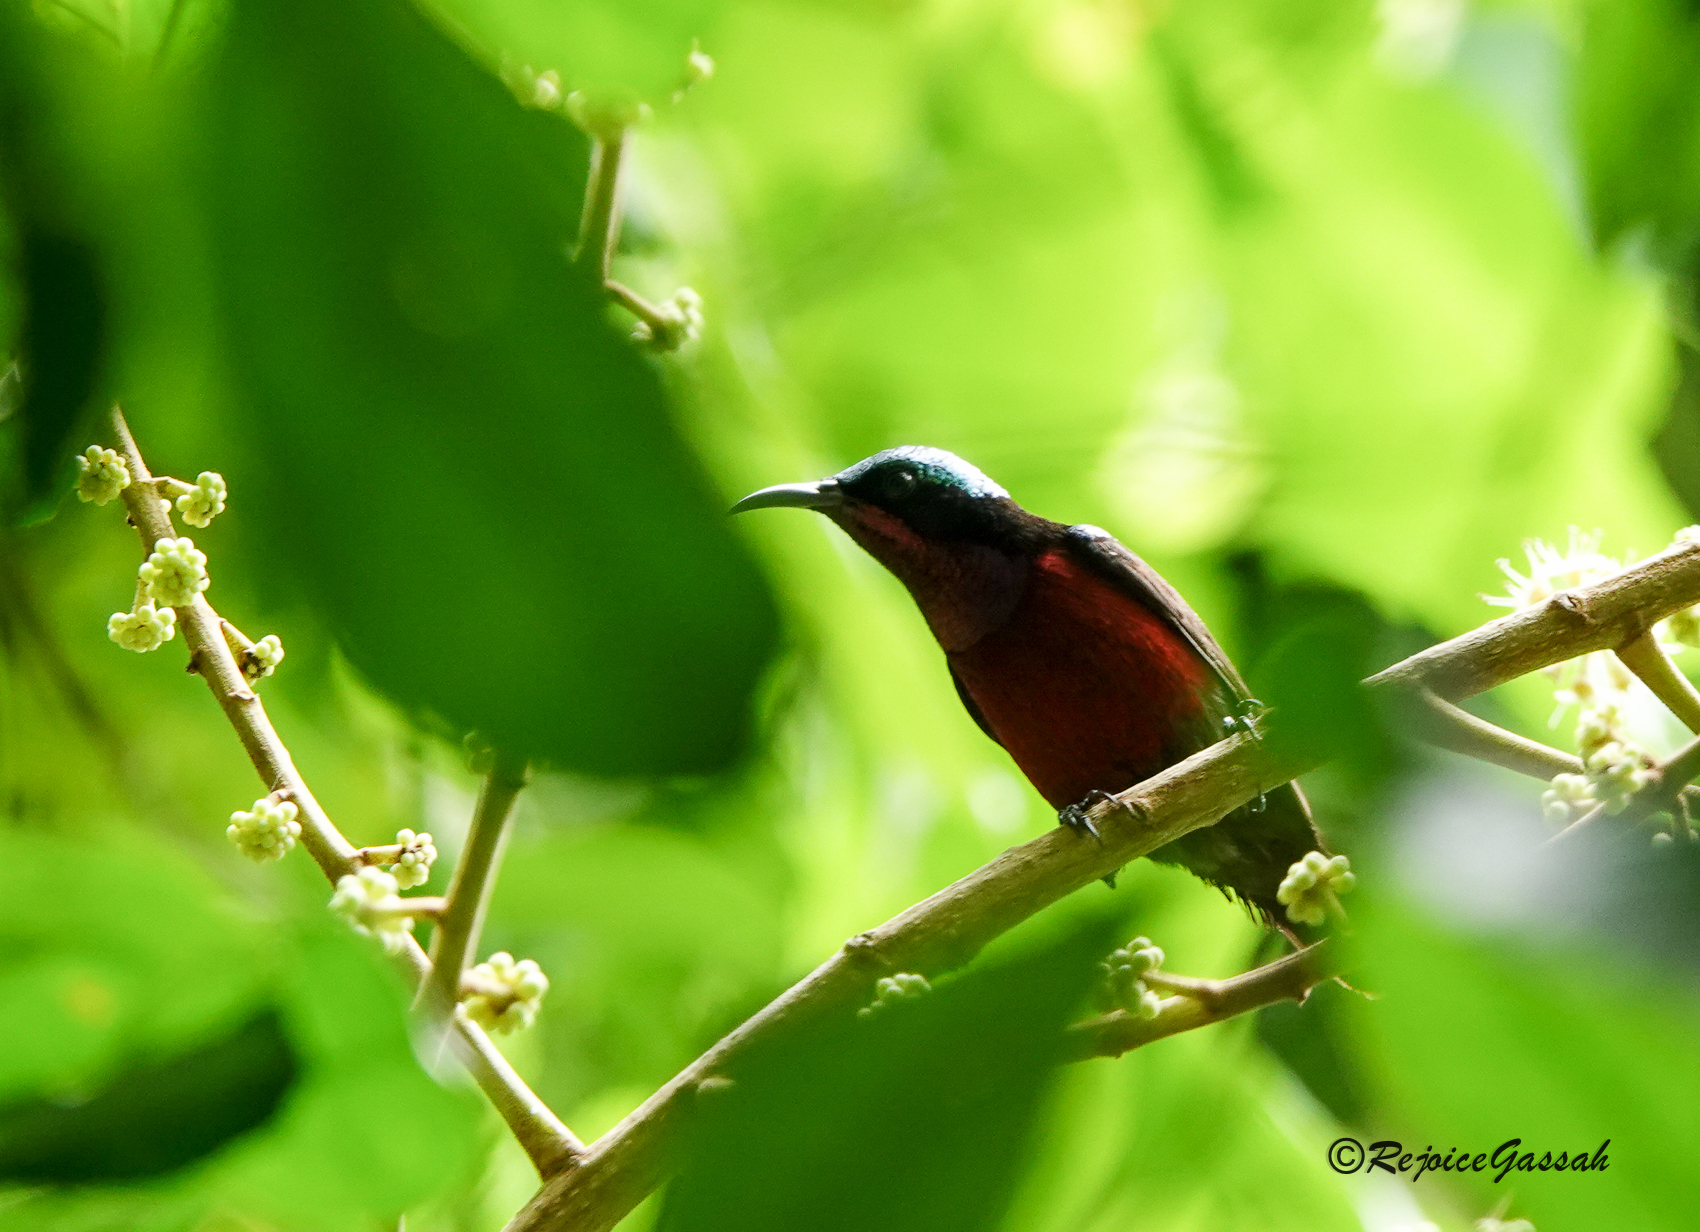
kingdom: Animalia
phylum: Chordata
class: Aves
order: Passeriformes
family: Nectariniidae
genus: Leptocoma
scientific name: Leptocoma brasiliana
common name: Van hasselt's sunbird
